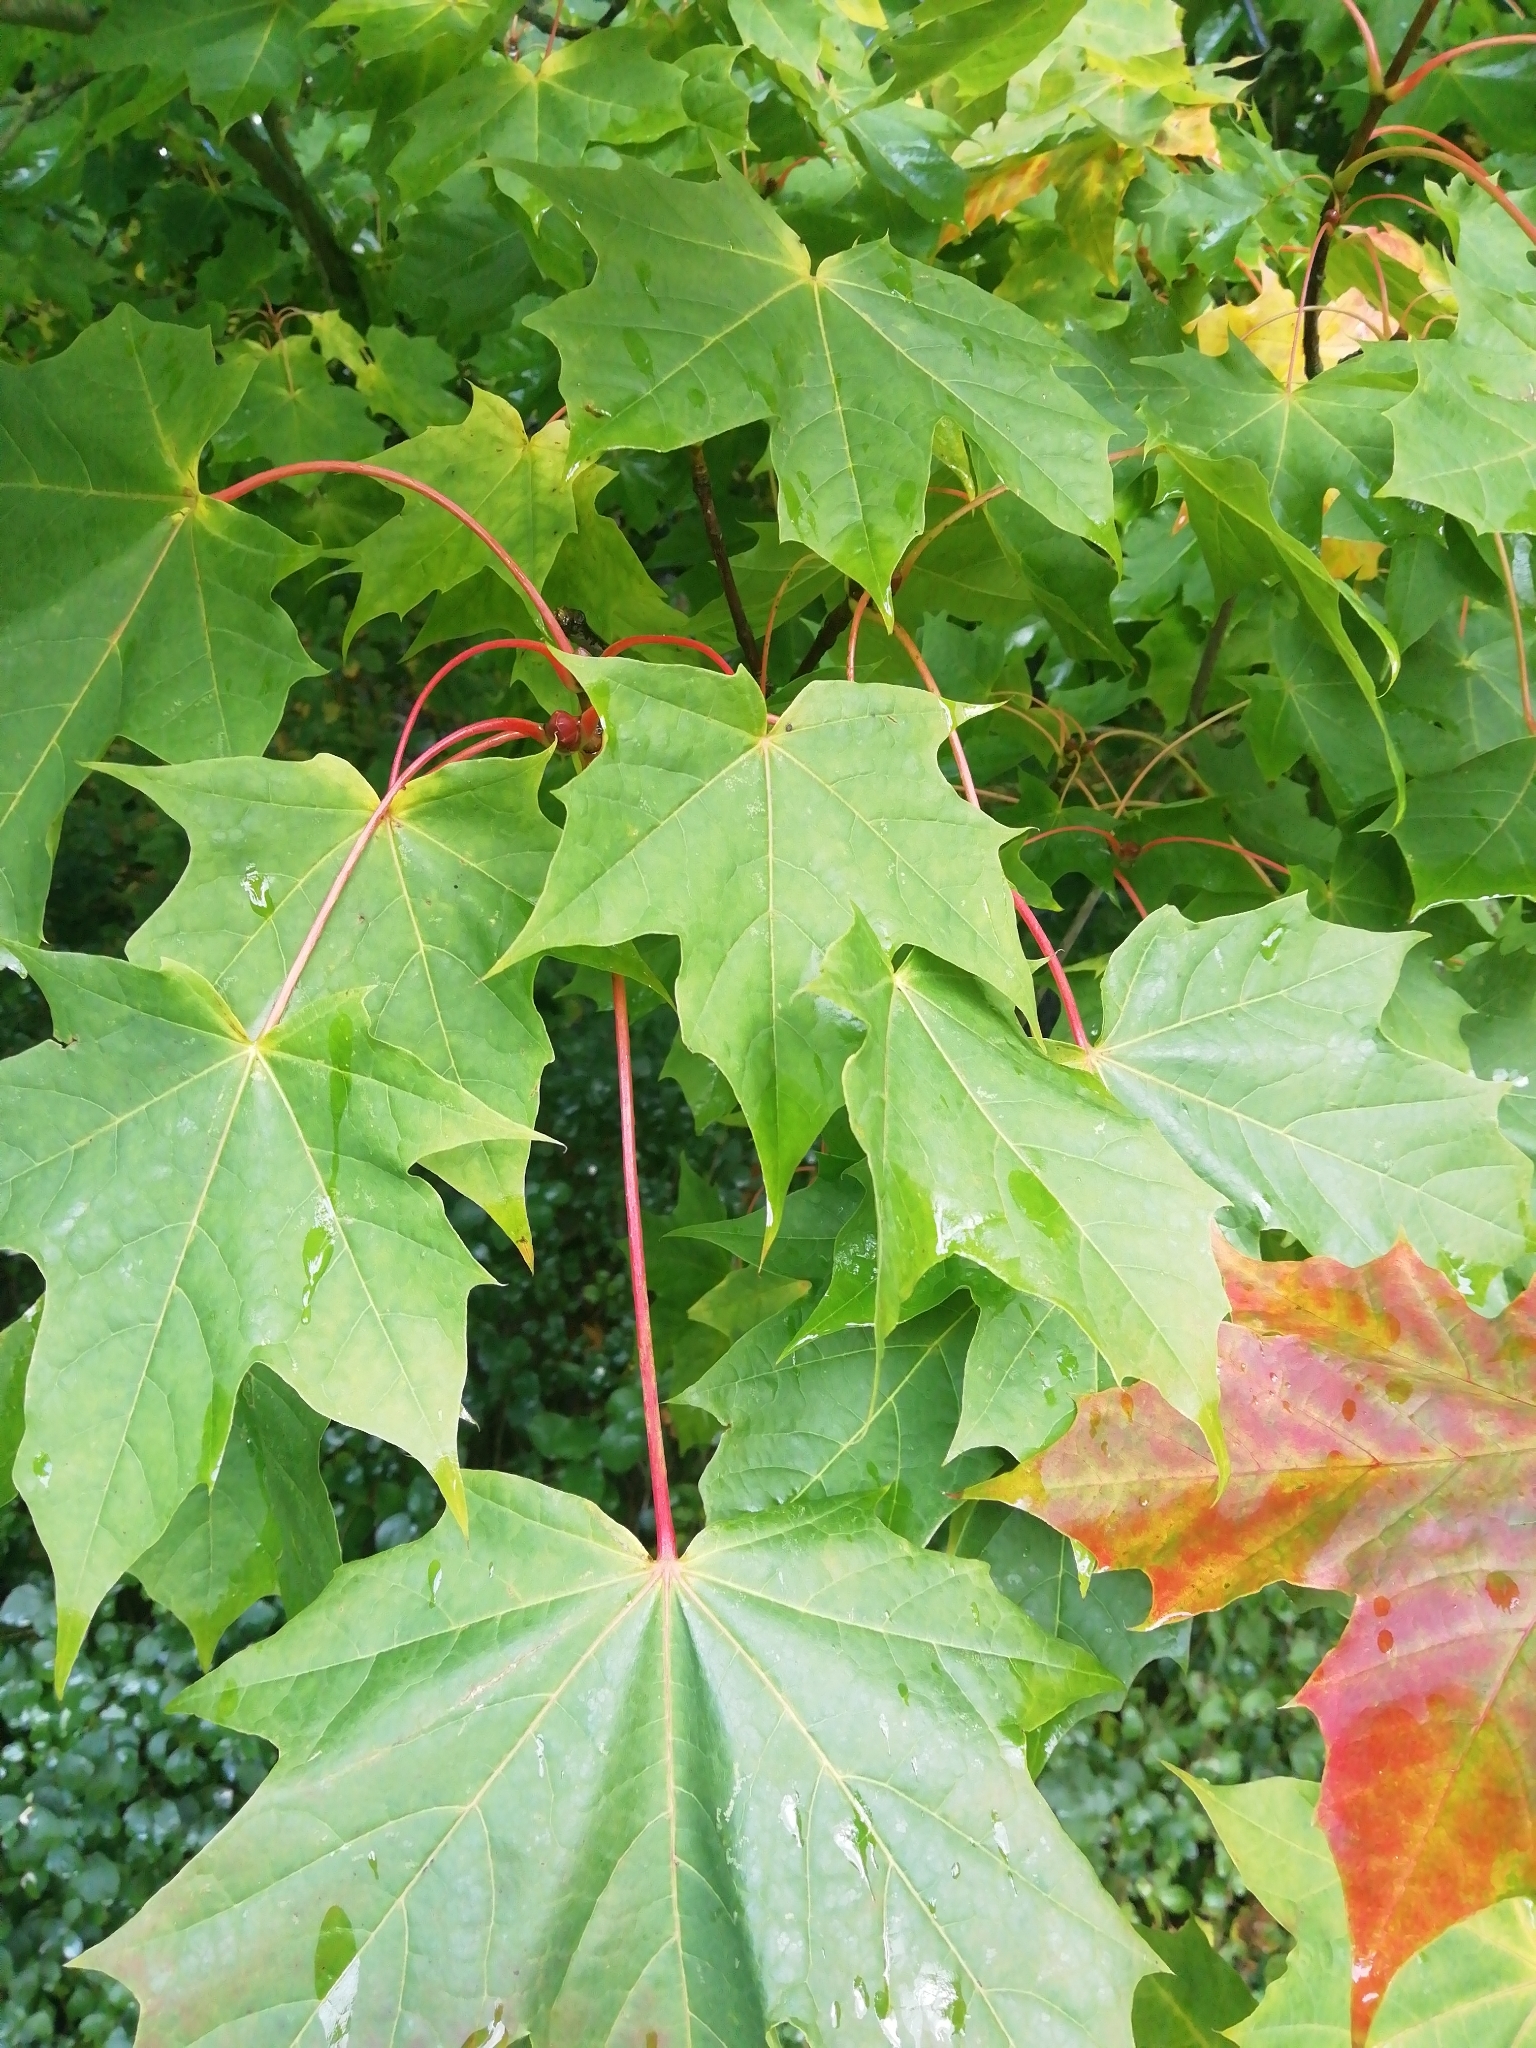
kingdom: Plantae
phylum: Tracheophyta
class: Magnoliopsida
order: Sapindales
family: Sapindaceae
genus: Acer
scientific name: Acer platanoides
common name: Norway maple
